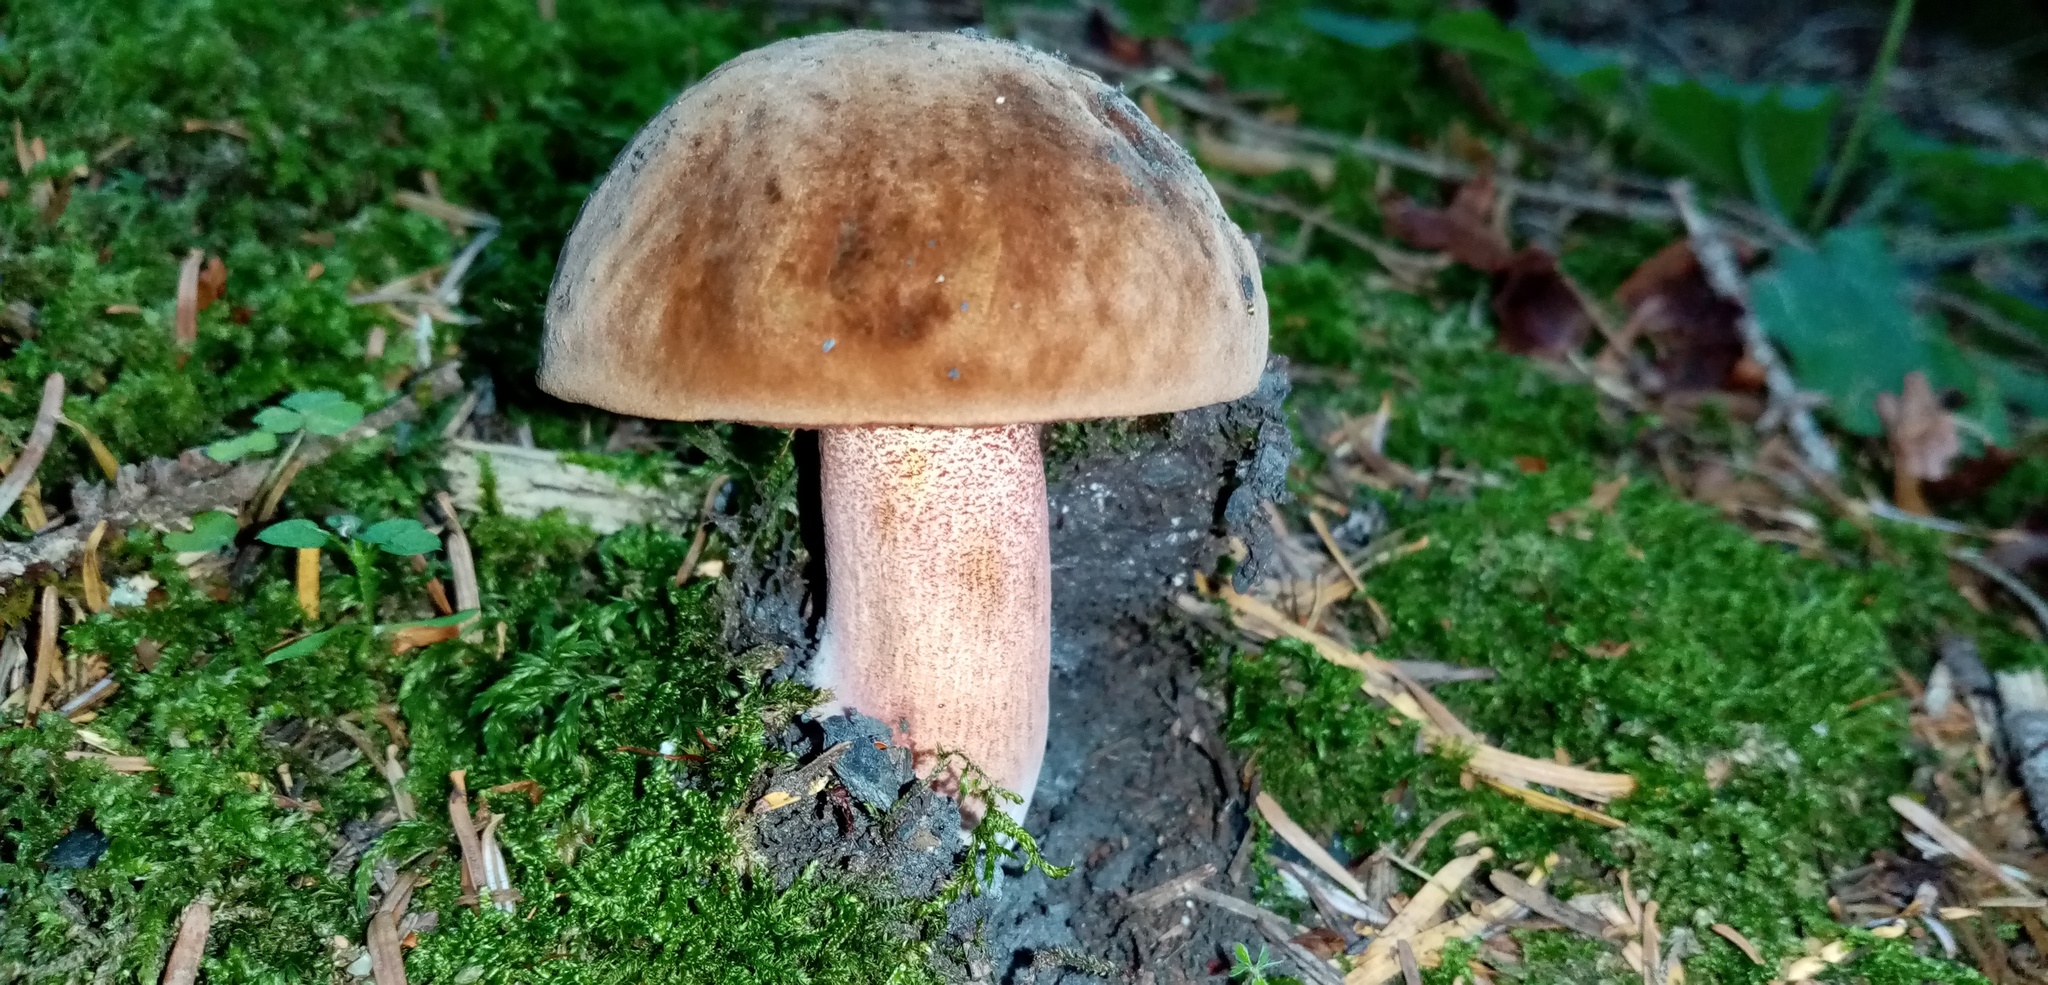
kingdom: Fungi
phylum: Basidiomycota
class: Agaricomycetes
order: Boletales
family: Boletaceae
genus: Neoboletus
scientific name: Neoboletus luridiformis
